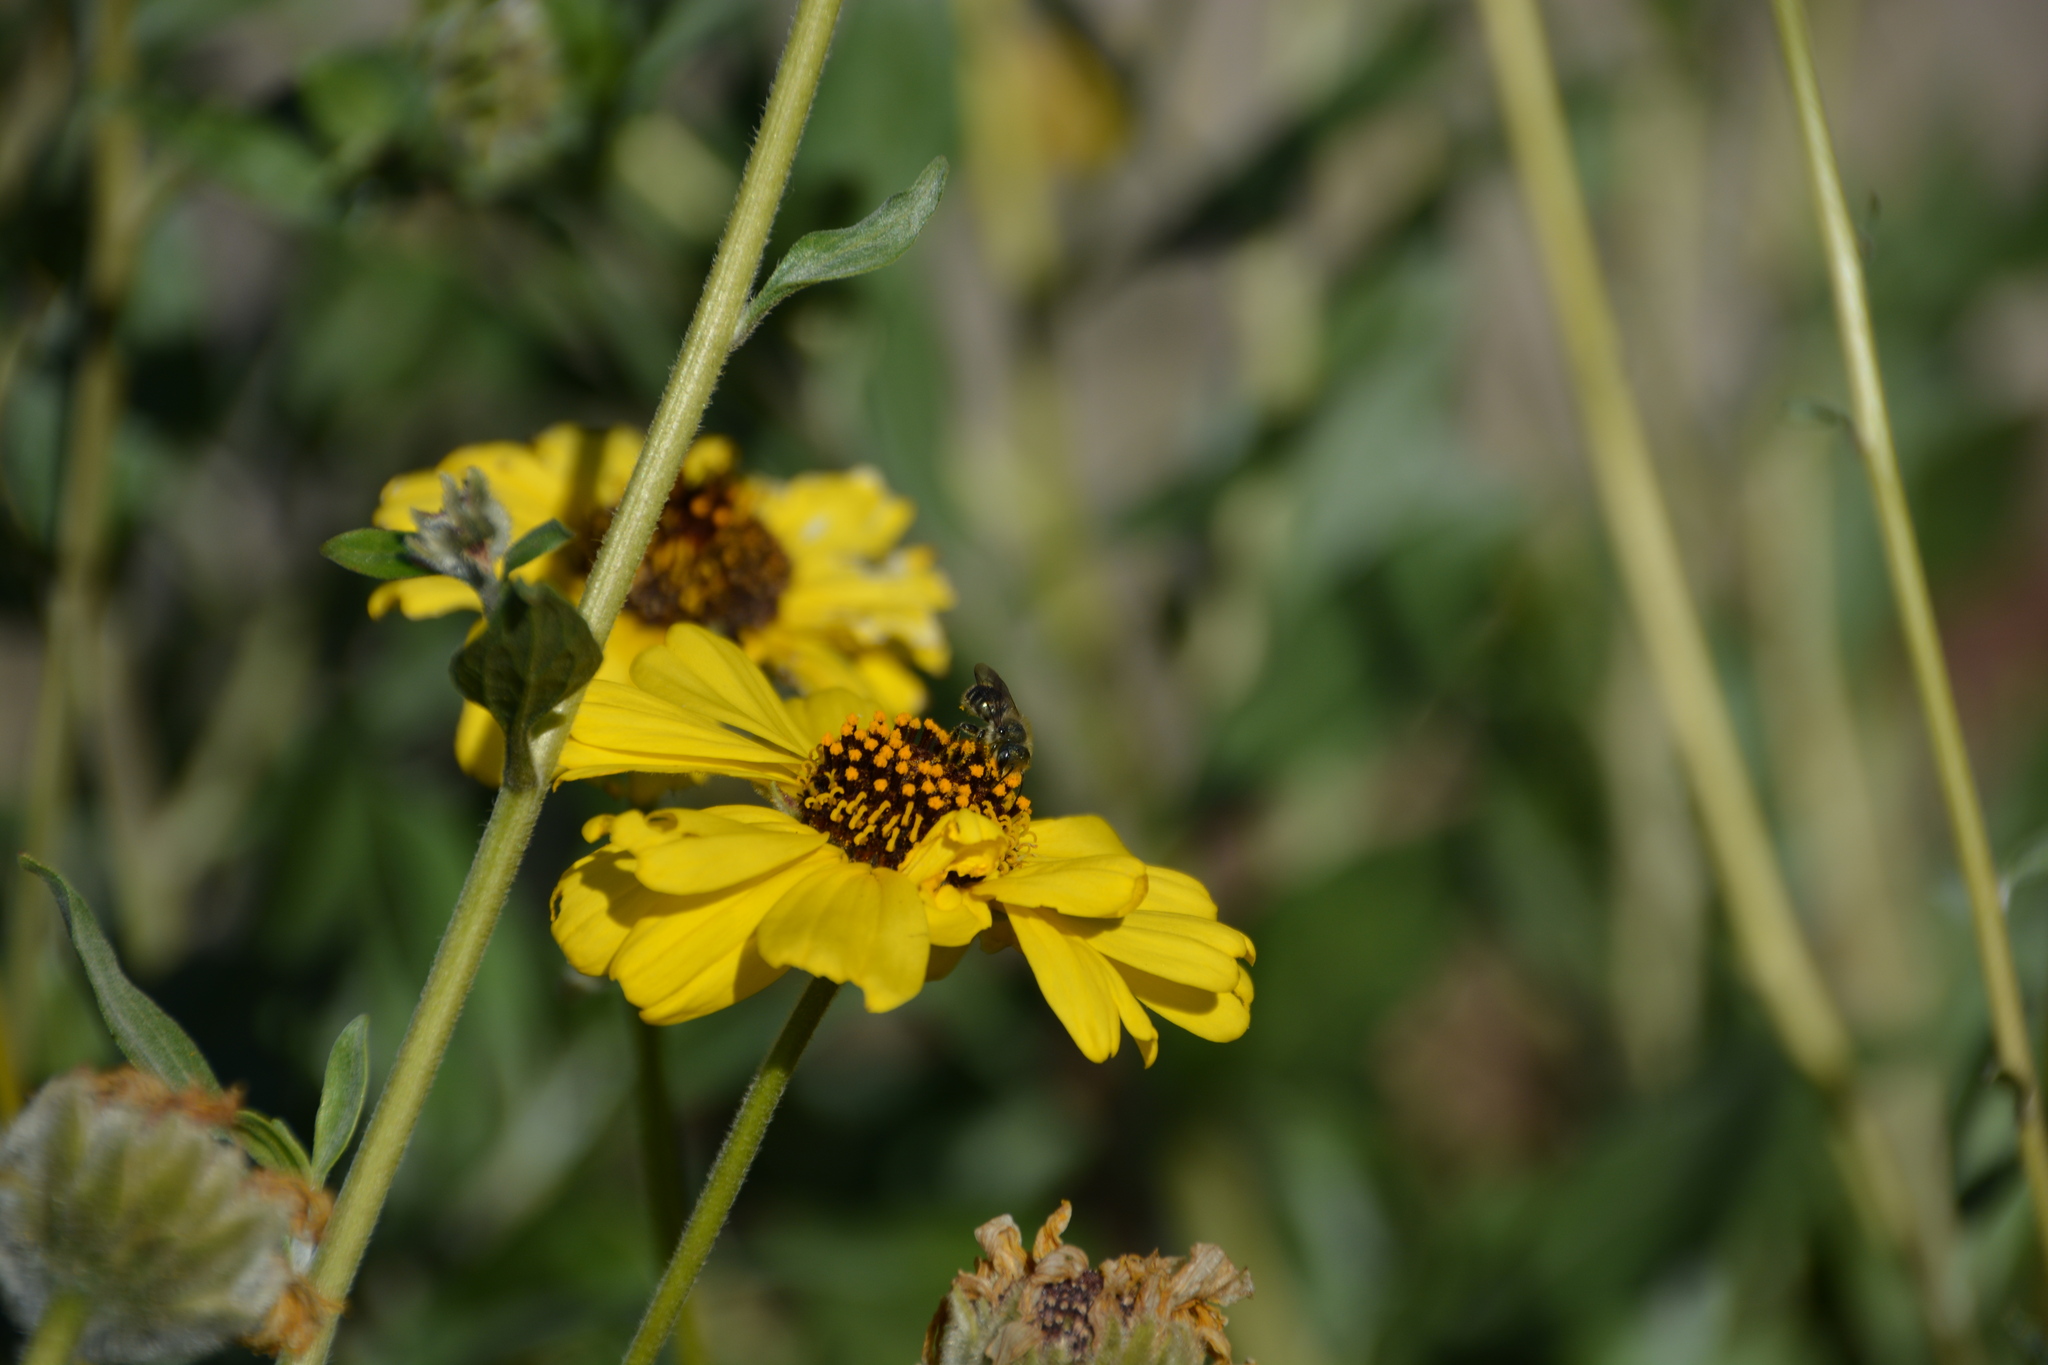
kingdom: Animalia
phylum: Arthropoda
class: Insecta
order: Hymenoptera
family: Megachilidae
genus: Osmia
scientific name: Osmia
